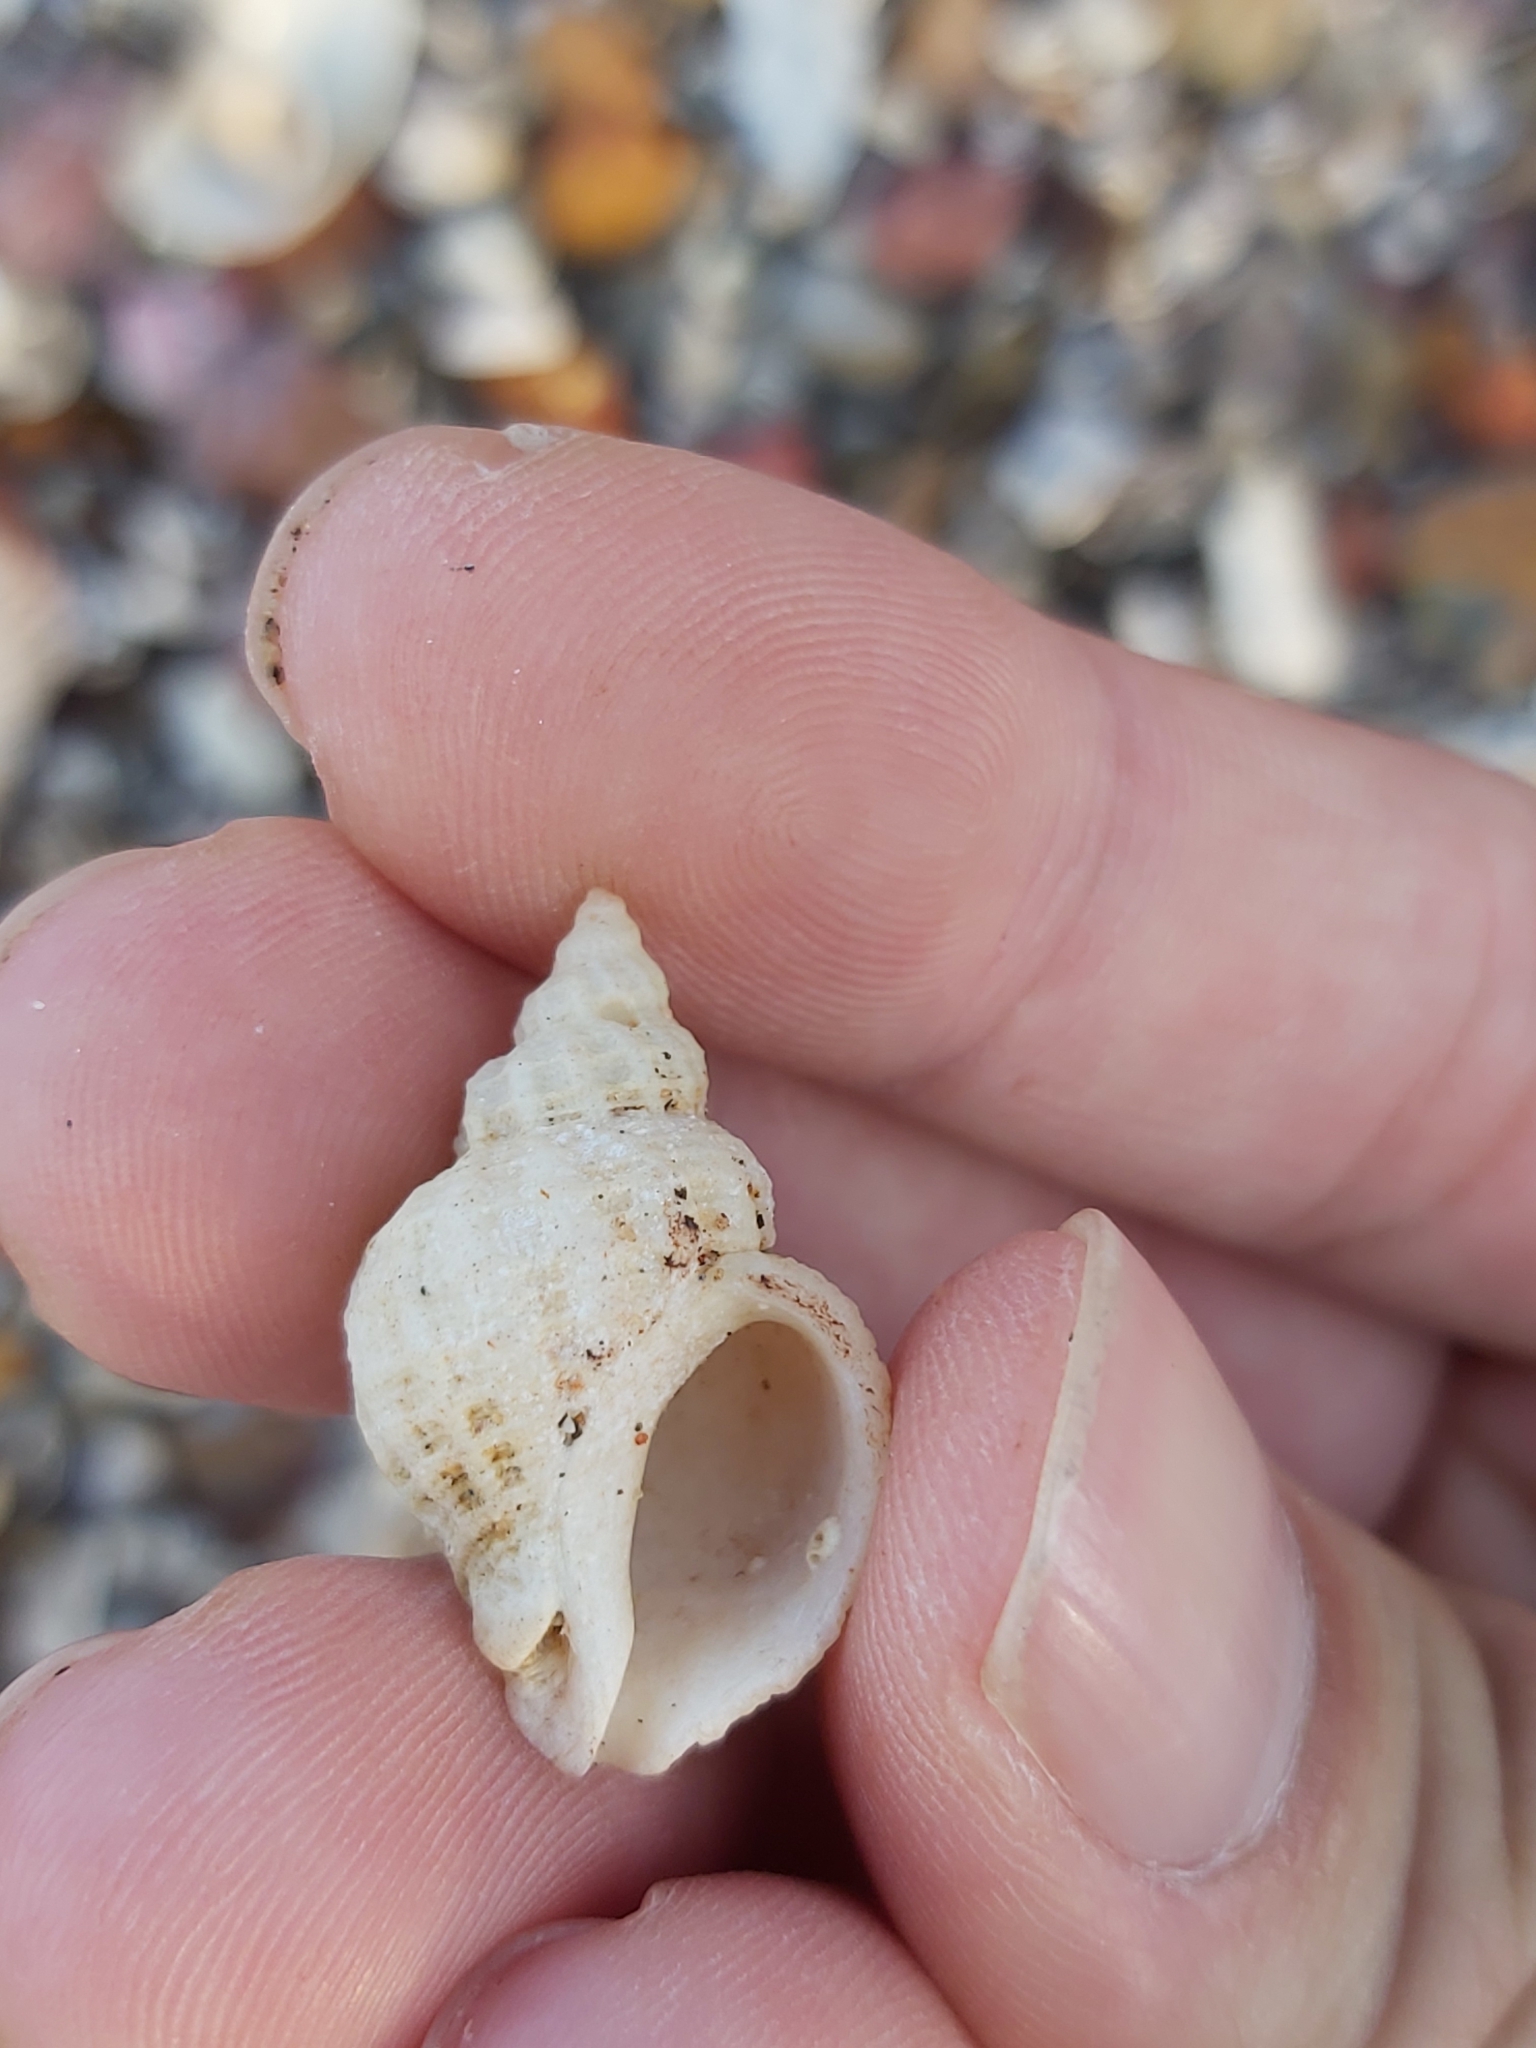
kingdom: Animalia
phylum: Mollusca
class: Gastropoda
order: Neogastropoda
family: Muricidae
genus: Coralliophila
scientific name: Coralliophila squamosissima
